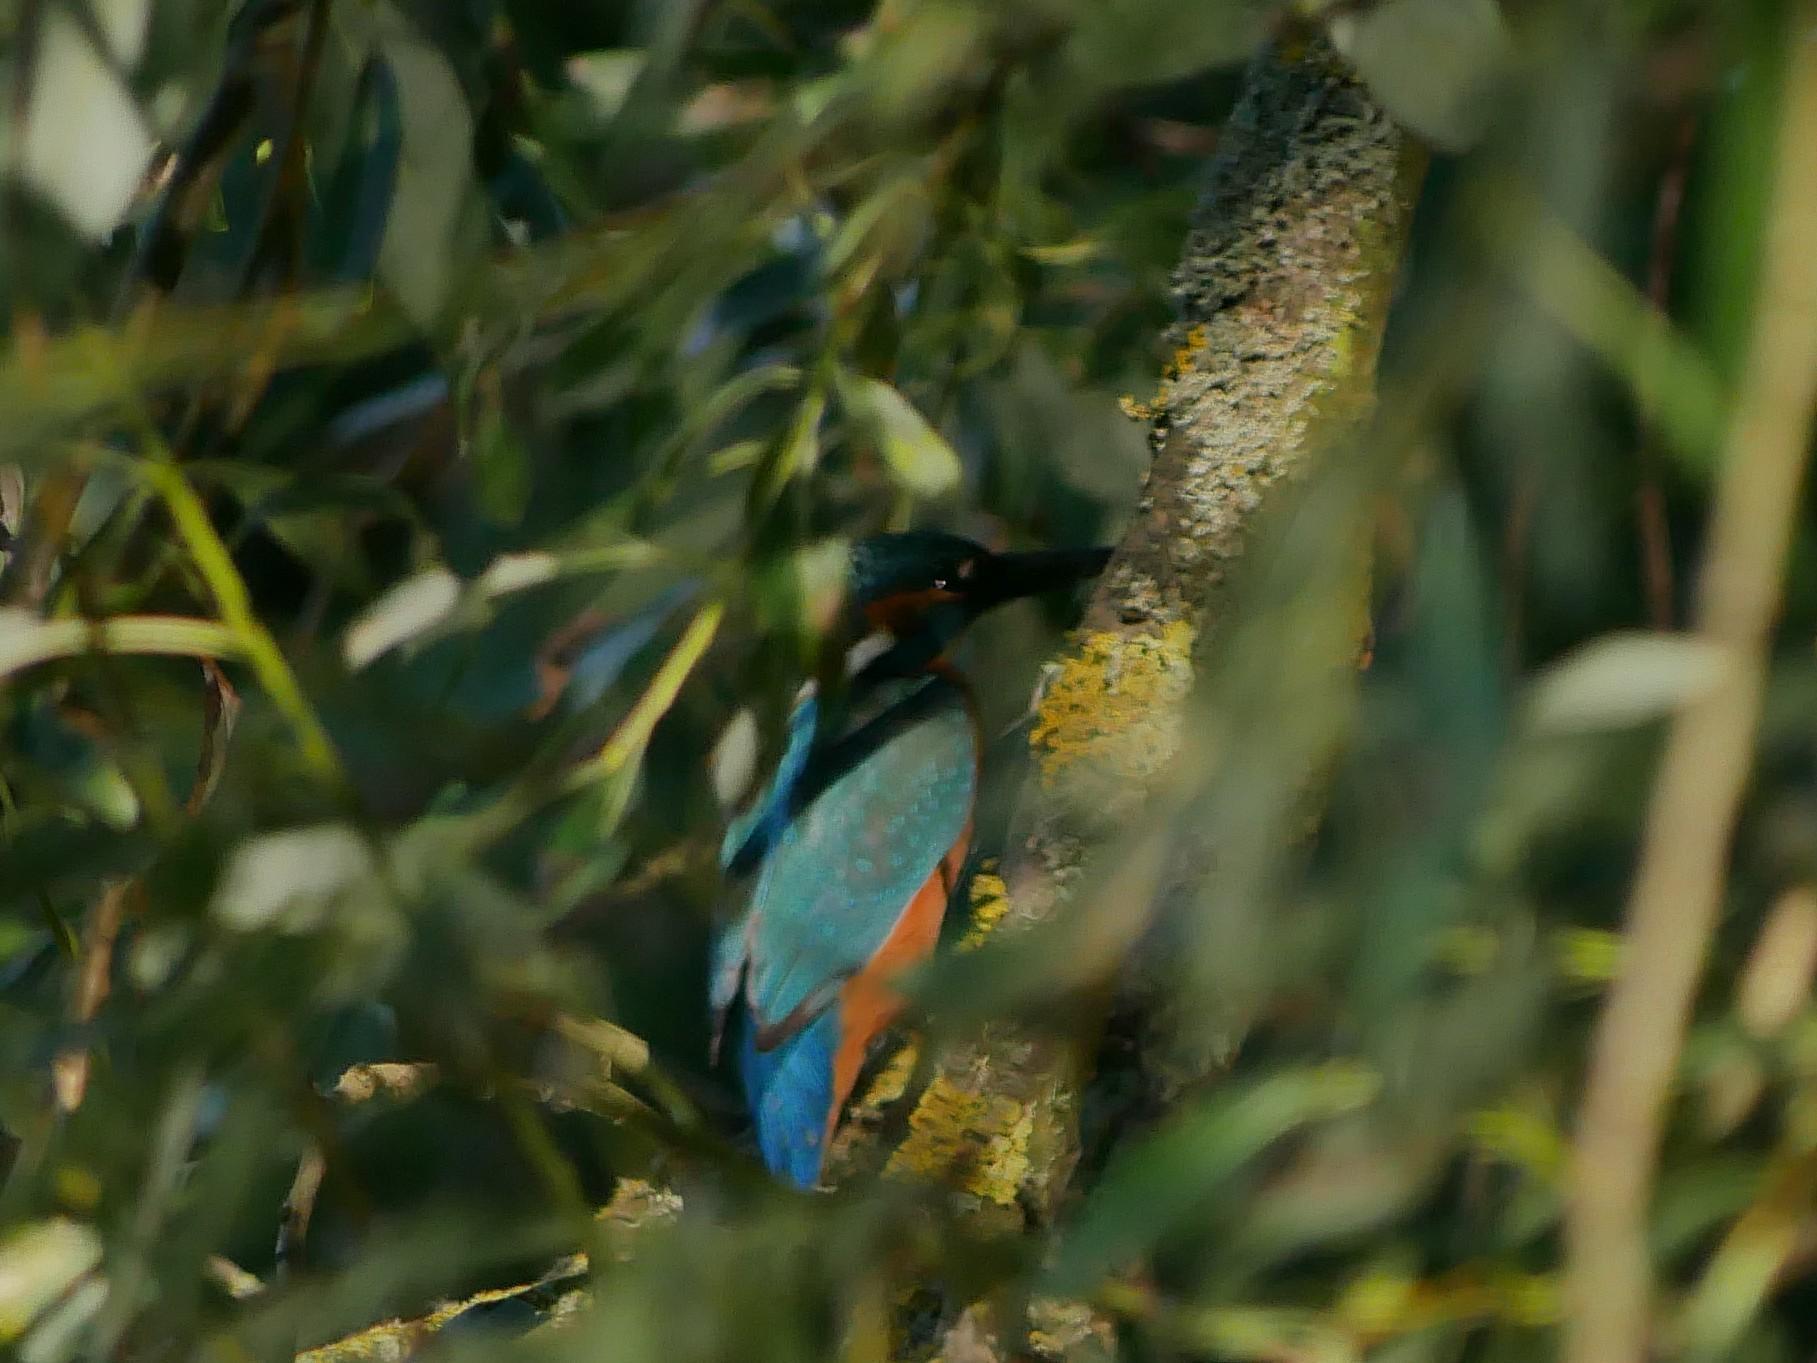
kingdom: Animalia
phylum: Chordata
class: Aves
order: Coraciiformes
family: Alcedinidae
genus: Alcedo
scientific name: Alcedo atthis
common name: Common kingfisher
